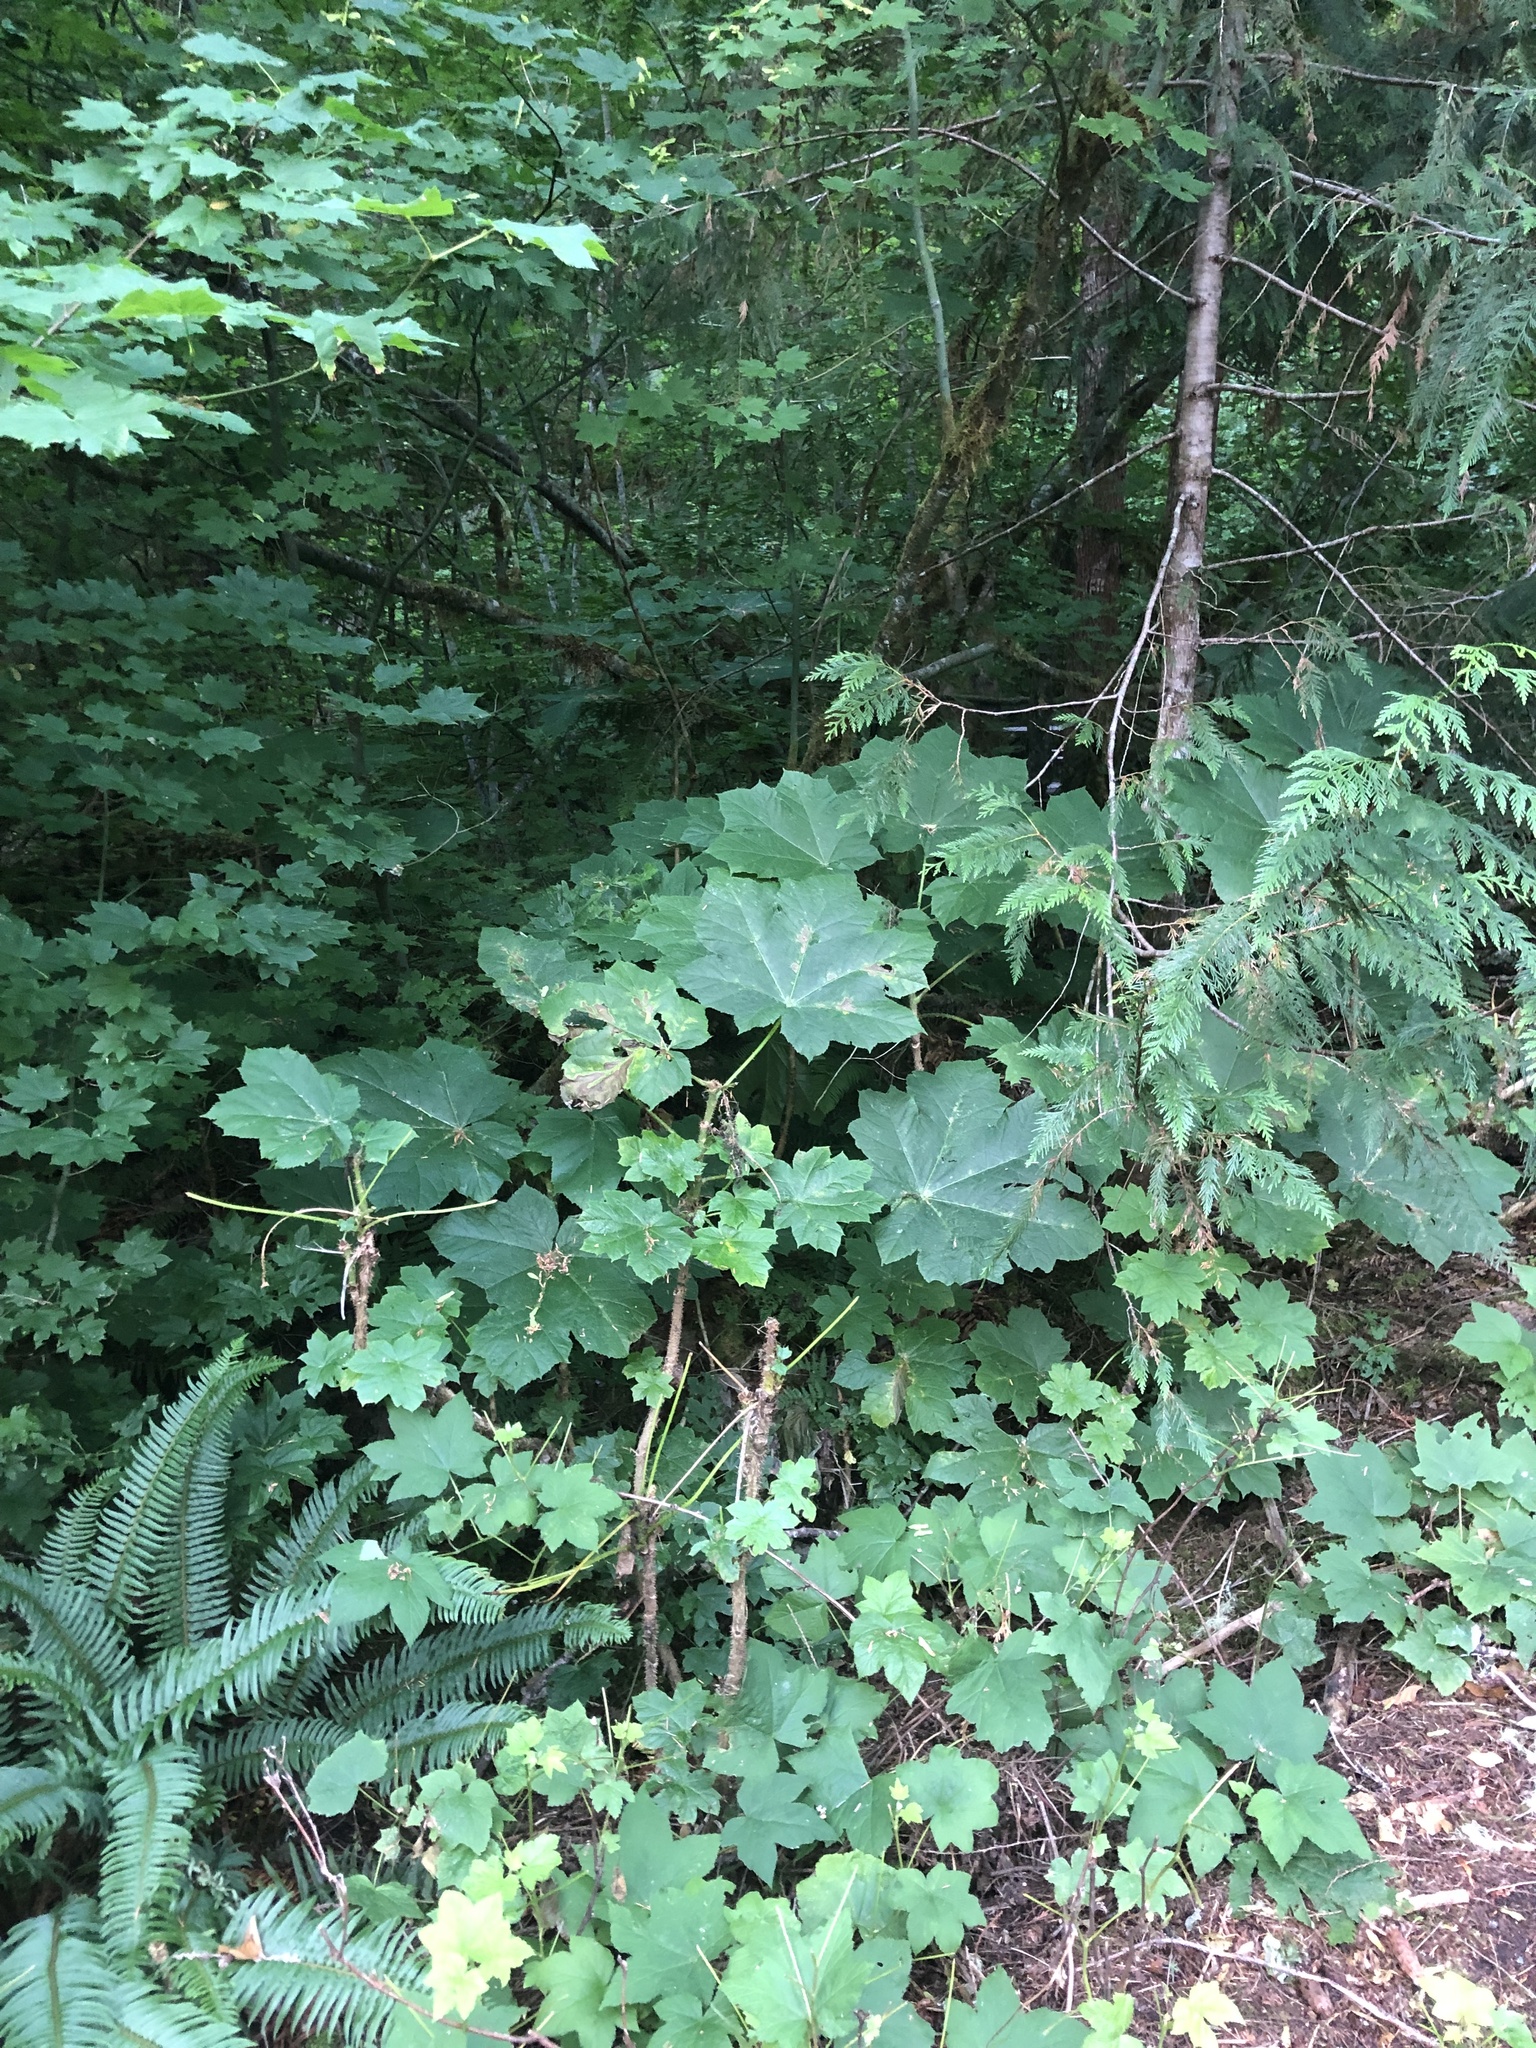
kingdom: Plantae
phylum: Tracheophyta
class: Magnoliopsida
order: Apiales
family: Araliaceae
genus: Oplopanax
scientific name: Oplopanax horridus
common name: Devil's walking-stick
